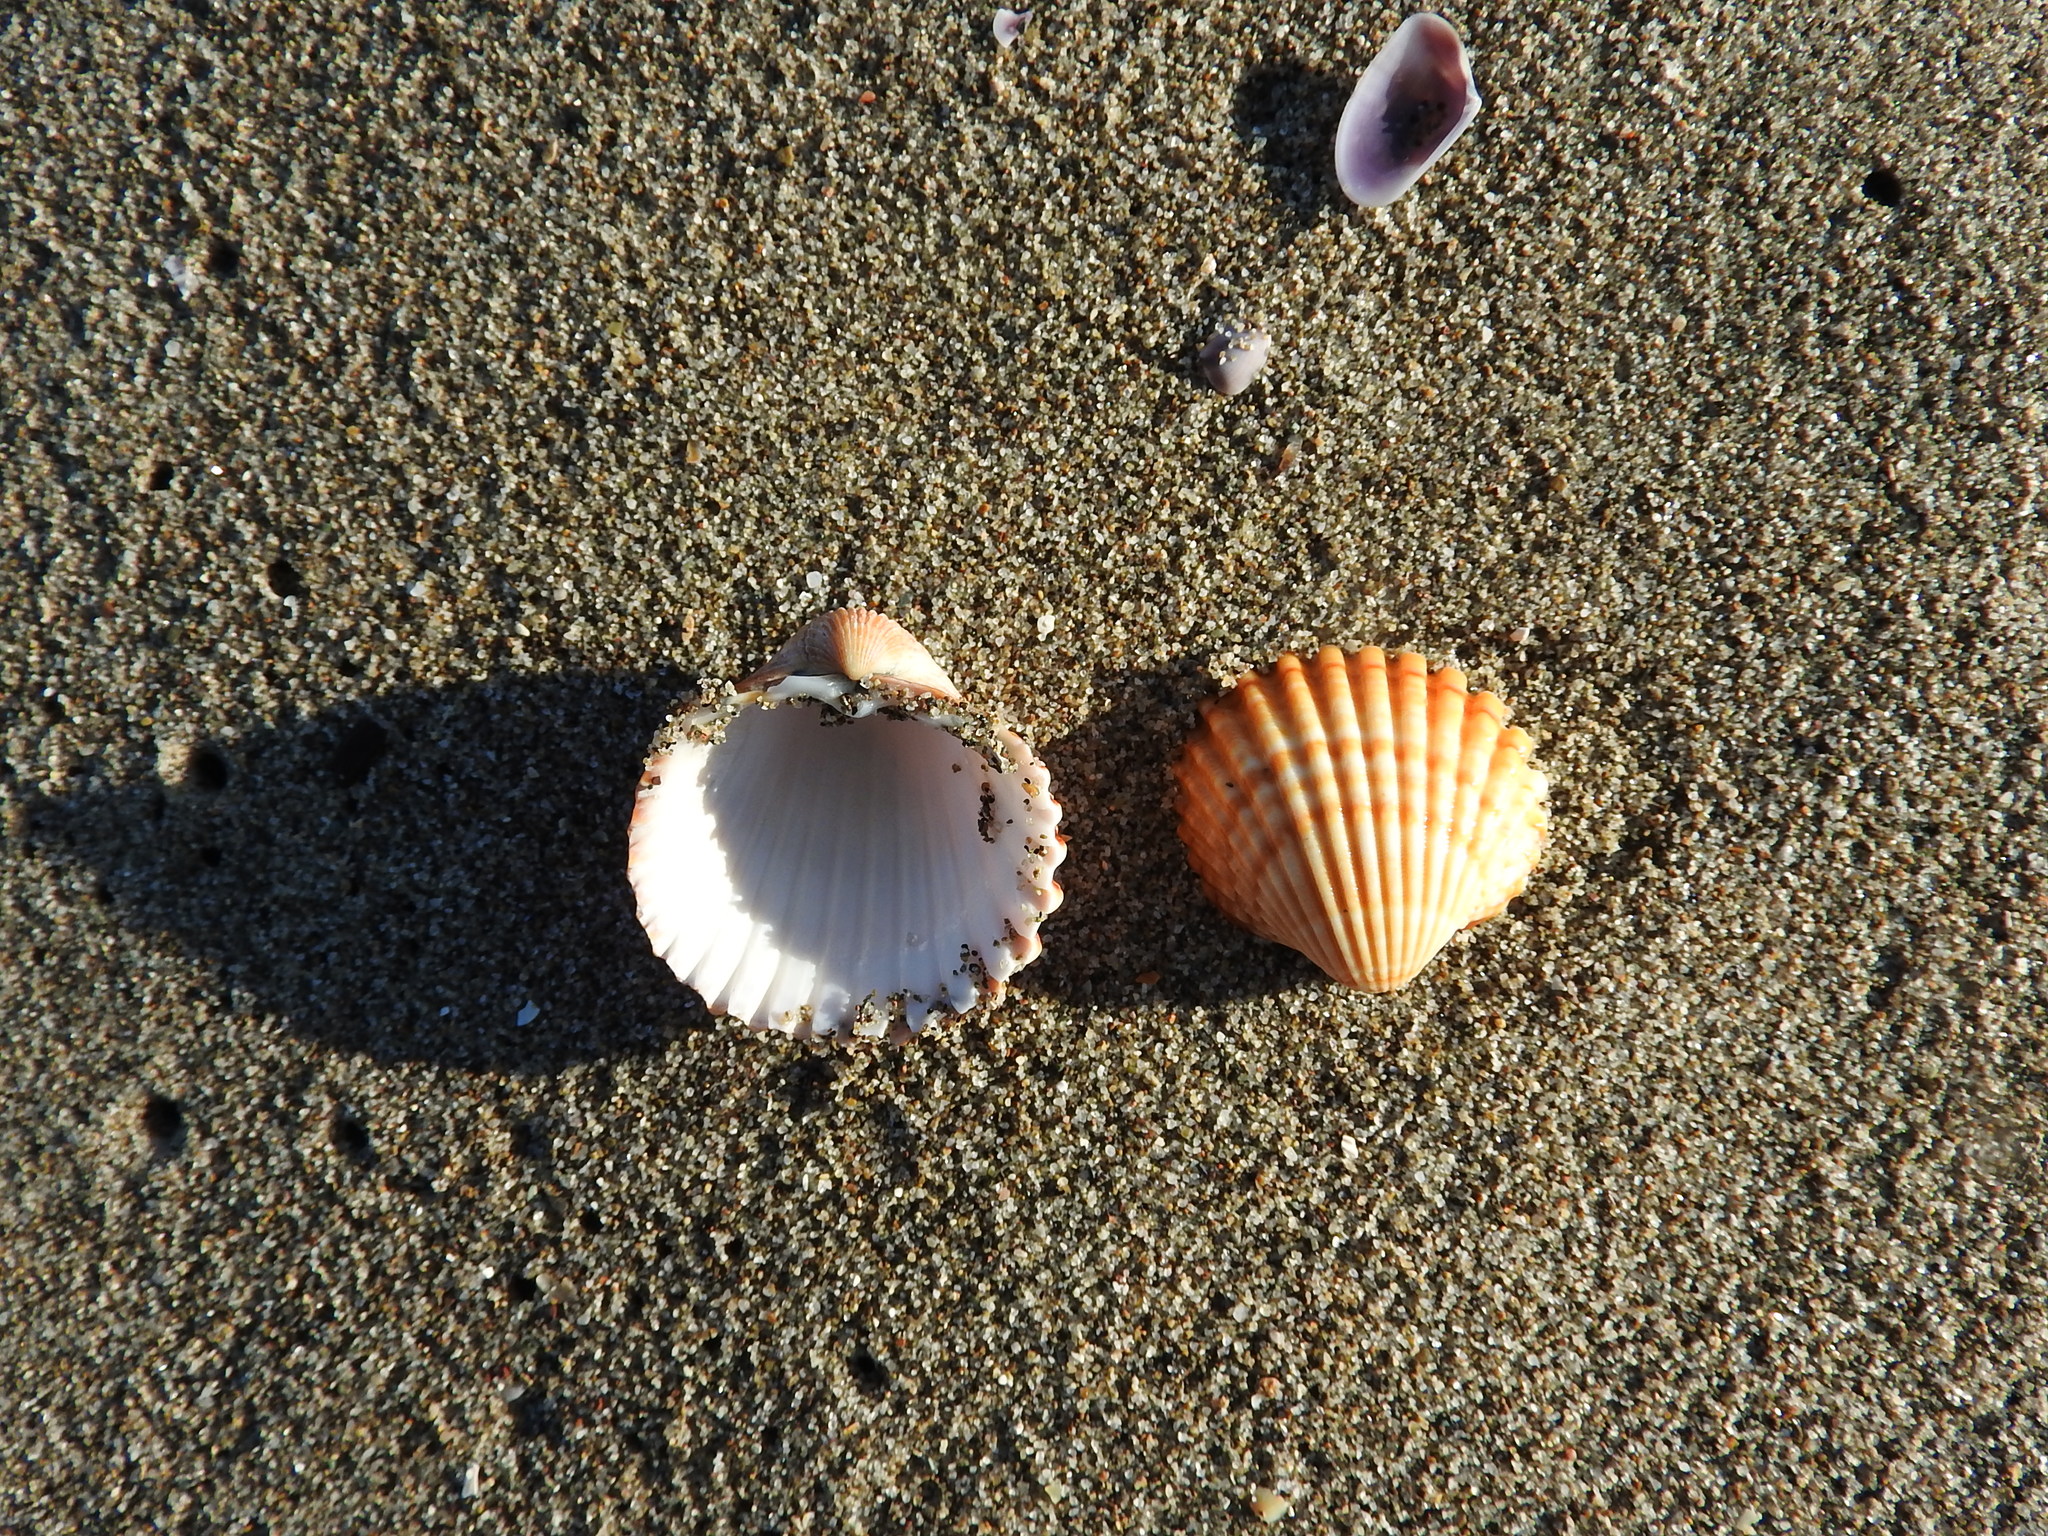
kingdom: Animalia
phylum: Mollusca
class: Bivalvia
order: Cardiida
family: Cardiidae
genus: Acanthocardia
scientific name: Acanthocardia tuberculata
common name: Rough cockle
